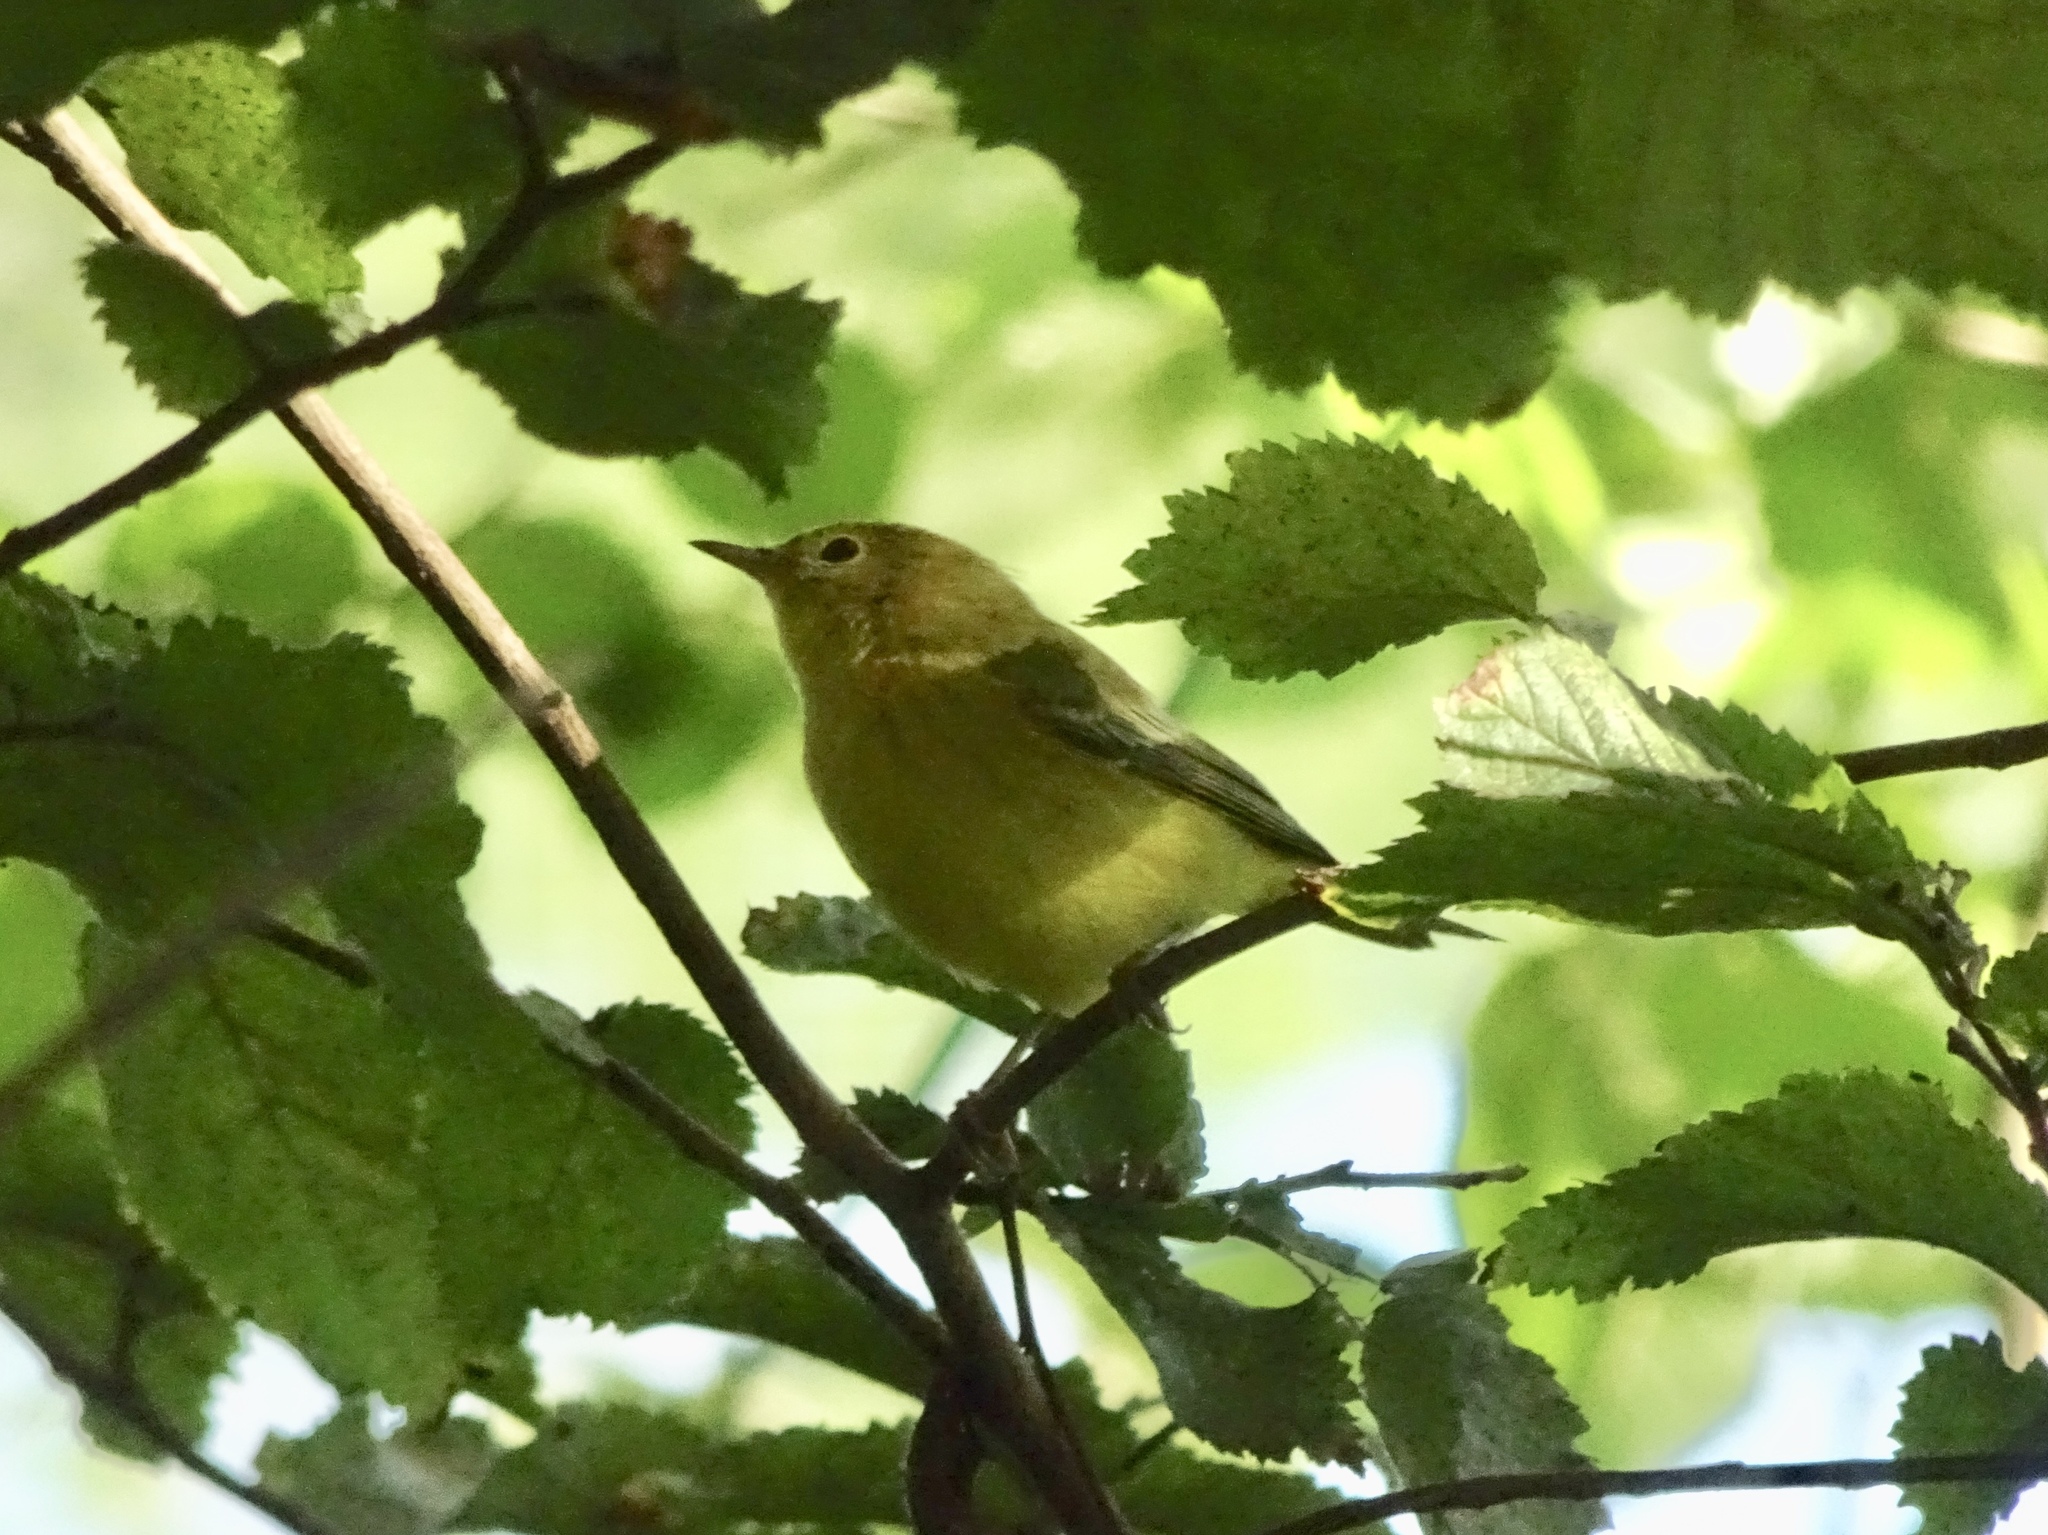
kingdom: Animalia
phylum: Chordata
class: Aves
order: Passeriformes
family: Parulidae
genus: Setophaga
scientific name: Setophaga petechia
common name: Yellow warbler
